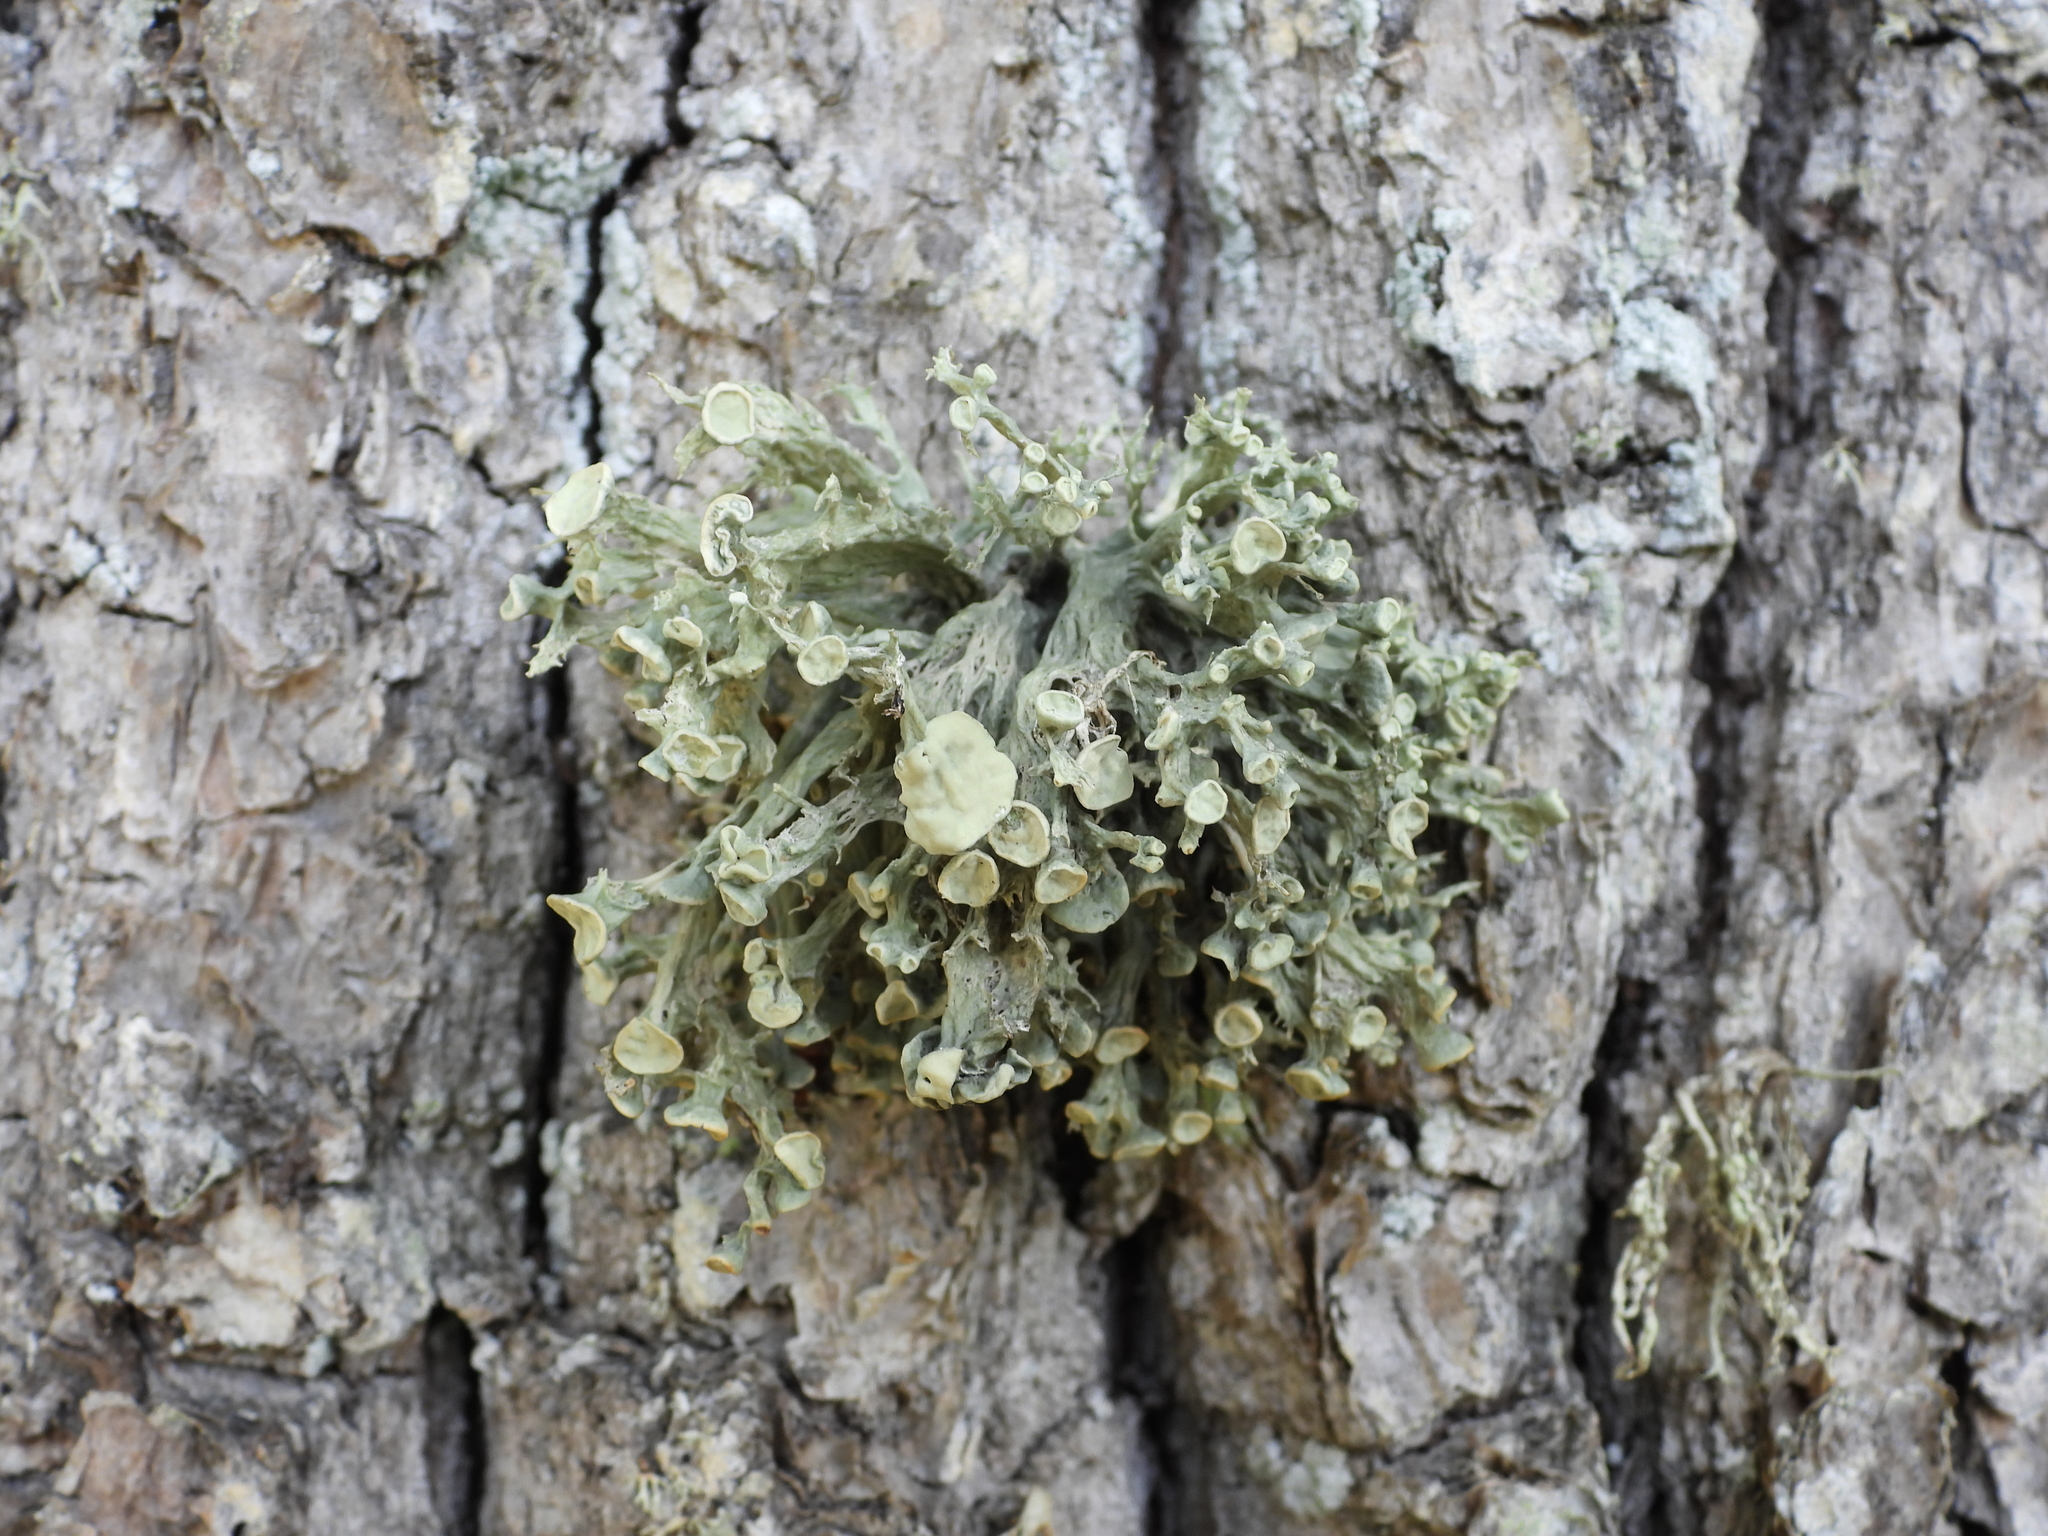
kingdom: Fungi
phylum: Ascomycota
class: Lecanoromycetes
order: Lecanorales
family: Ramalinaceae
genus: Ramalina
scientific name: Ramalina fastigiata
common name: Dotted ribbon lichen
